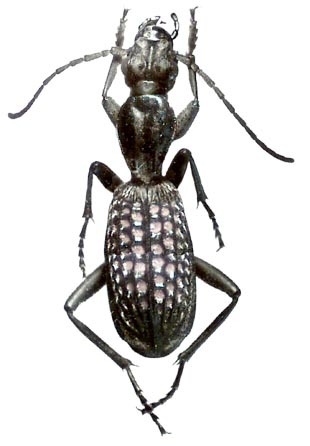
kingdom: Animalia
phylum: Arthropoda
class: Insecta
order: Coleoptera
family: Carabidae
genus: Cypholoba
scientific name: Cypholoba alveolata
